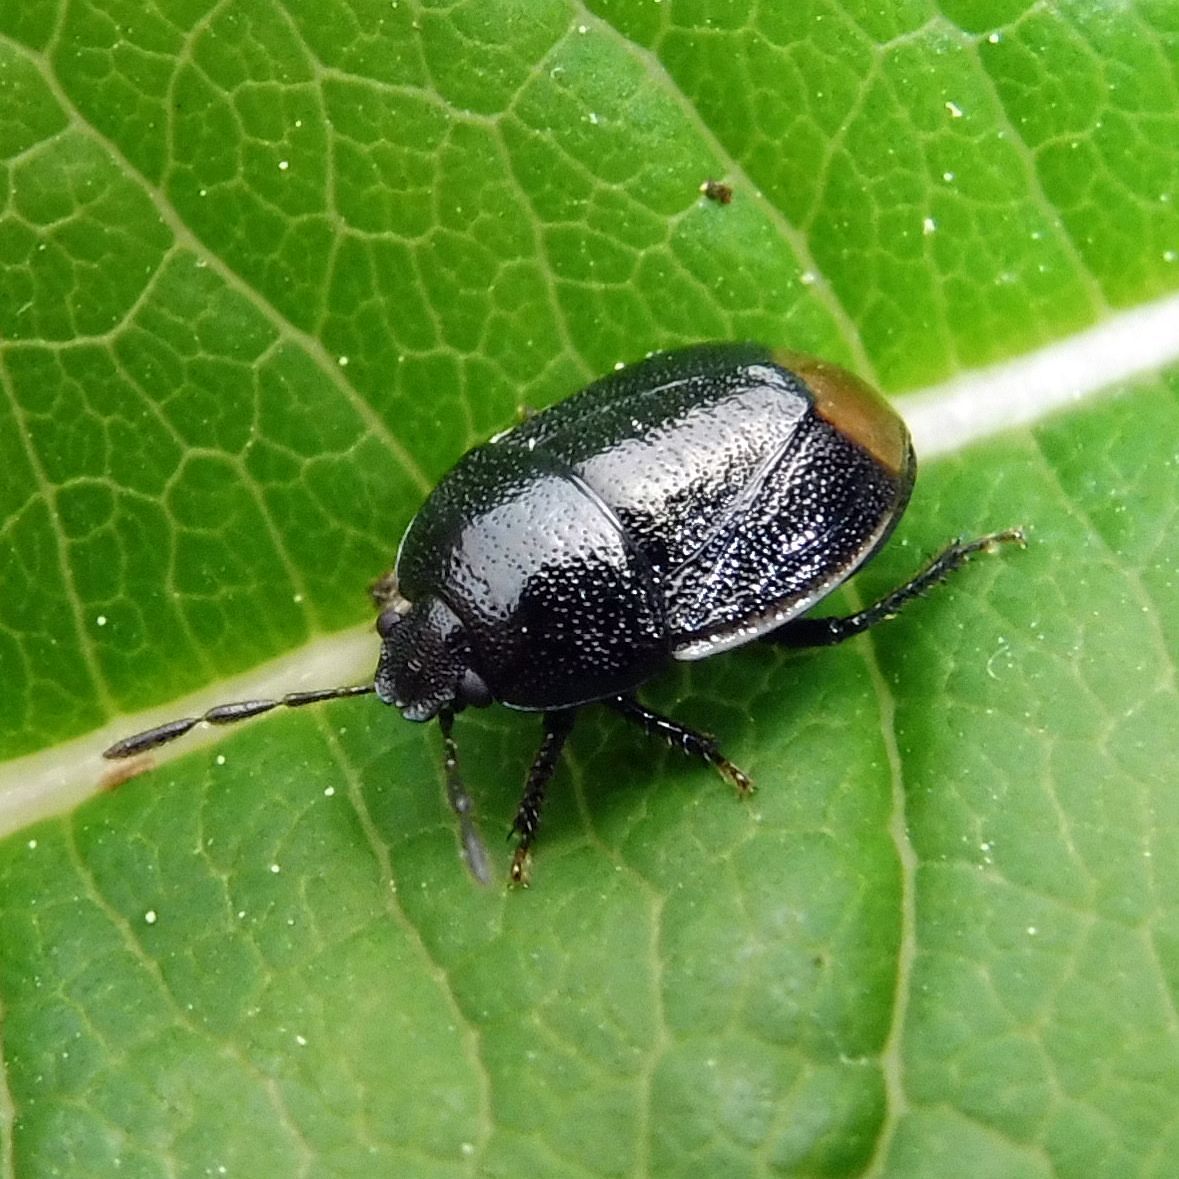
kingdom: Animalia
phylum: Arthropoda
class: Insecta
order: Hemiptera
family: Cydnidae
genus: Legnotus
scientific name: Legnotus limbosus
